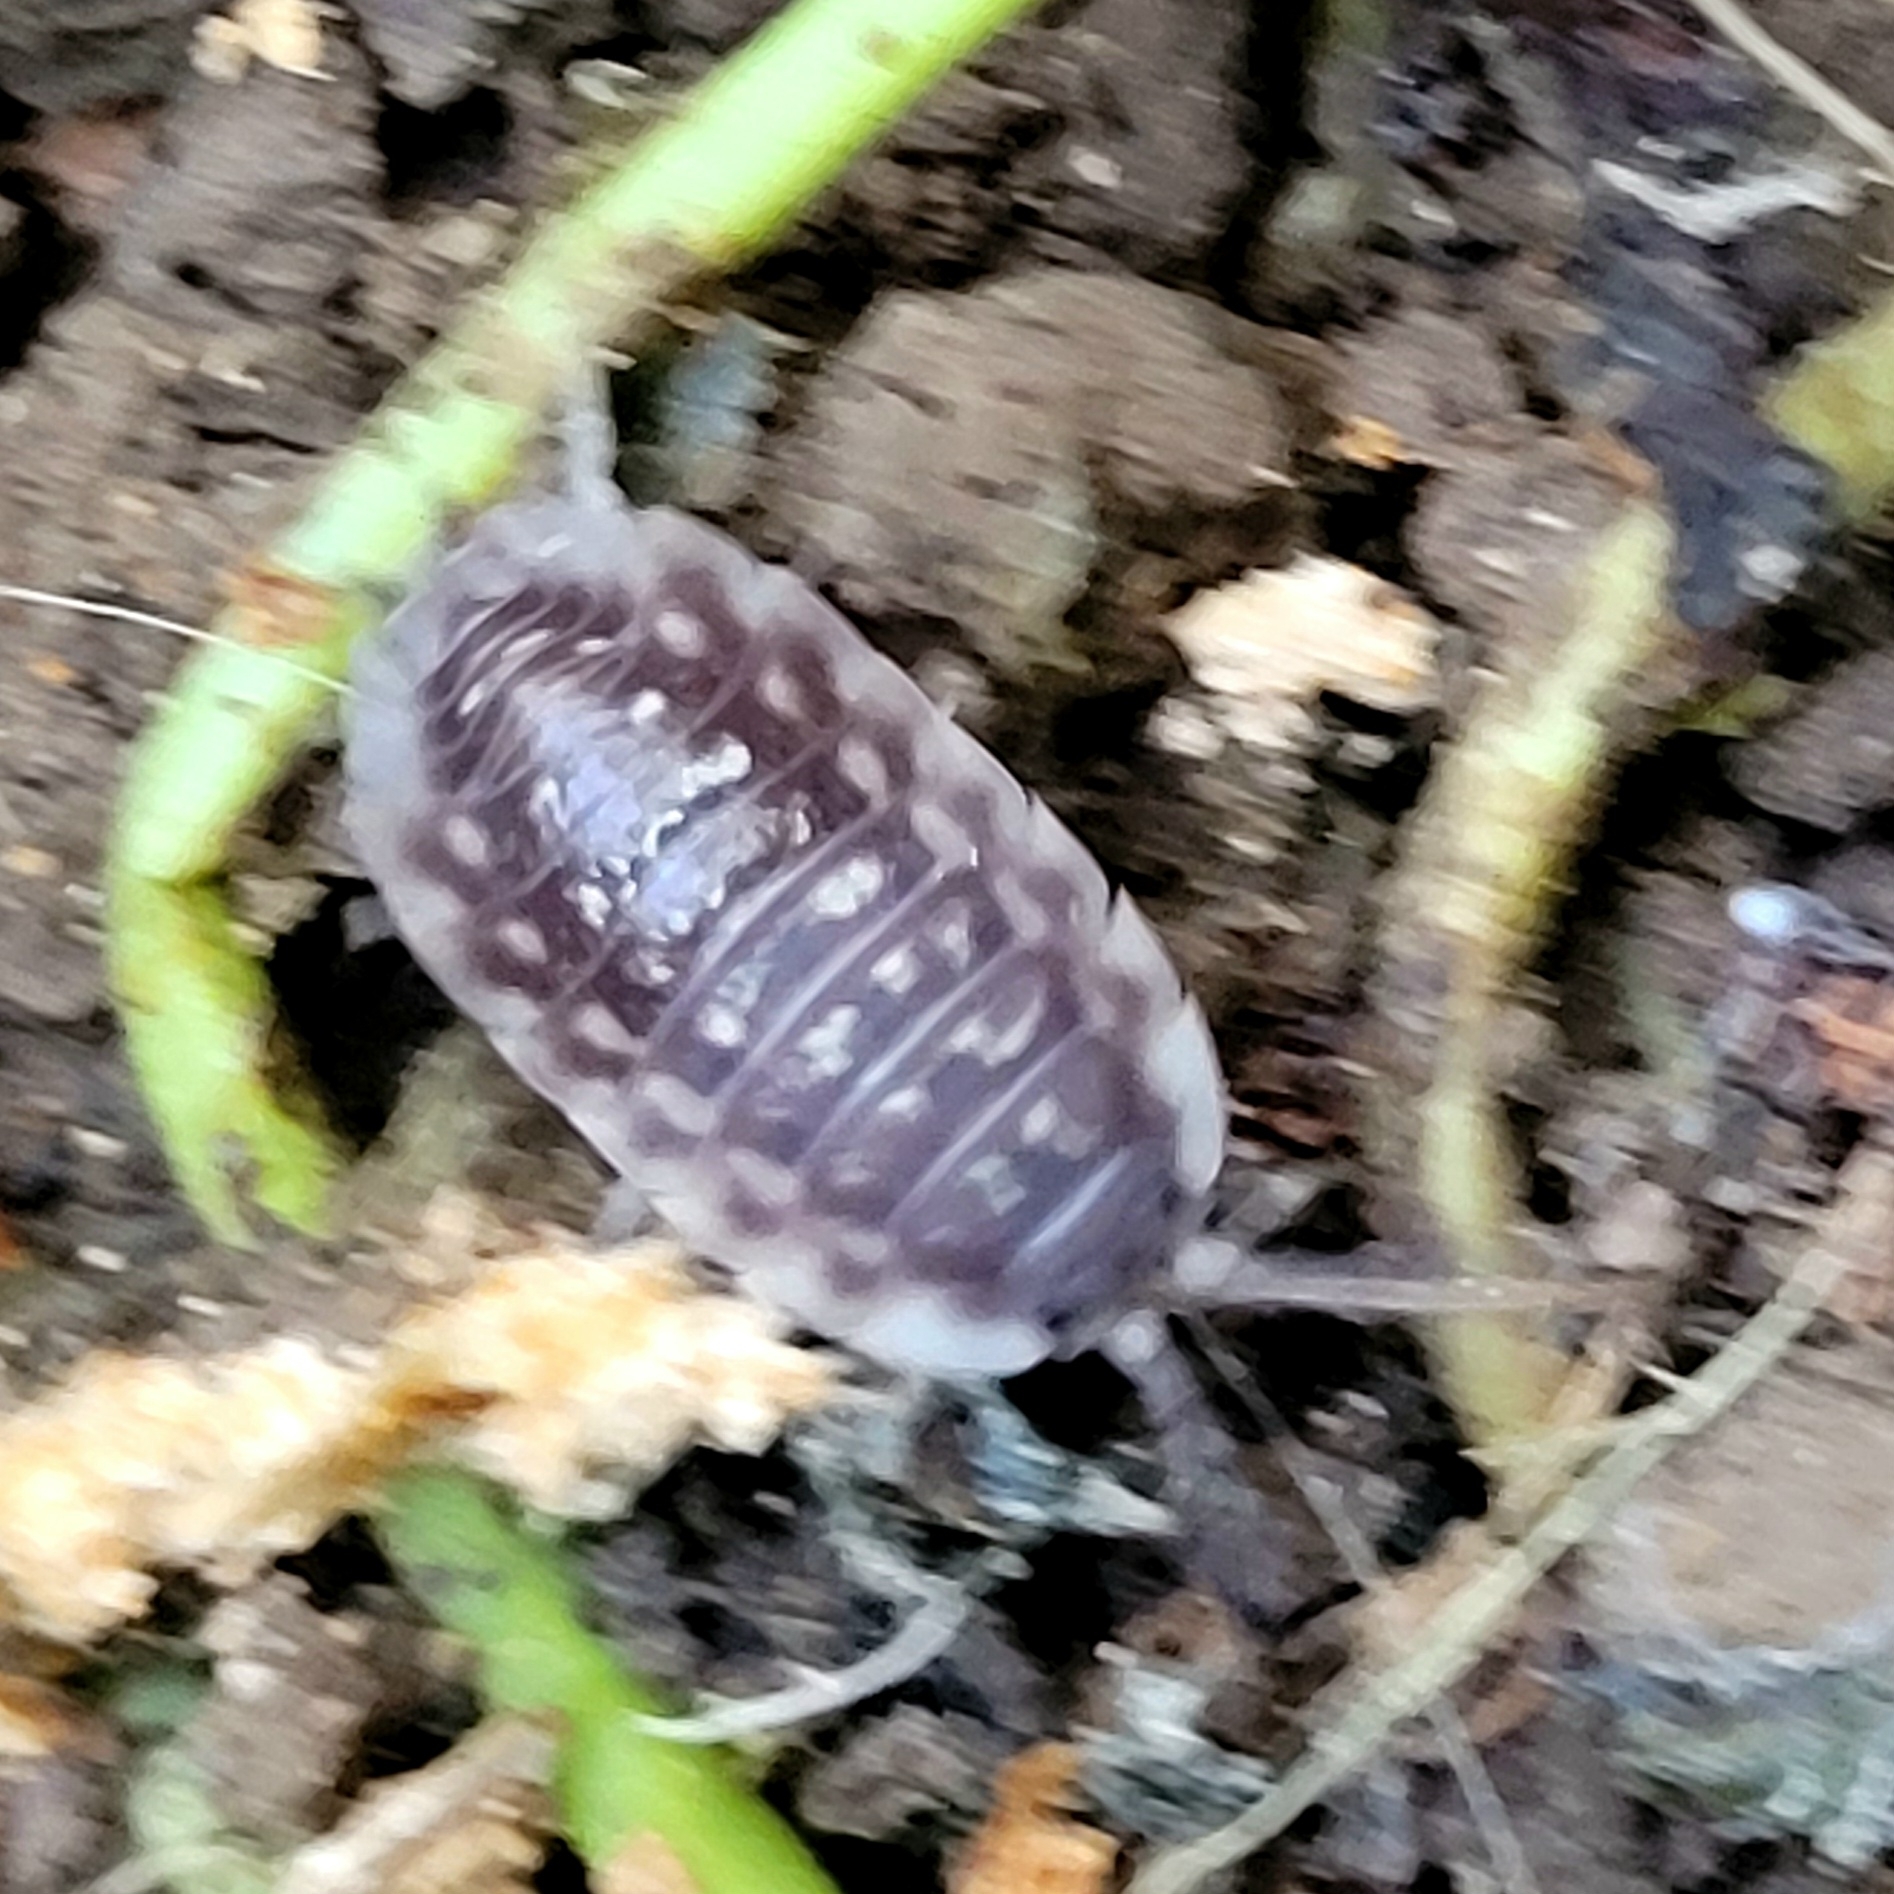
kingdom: Animalia
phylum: Arthropoda
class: Malacostraca
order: Isopoda
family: Oniscidae
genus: Oniscus
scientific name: Oniscus asellus
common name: Common shiny woodlouse
